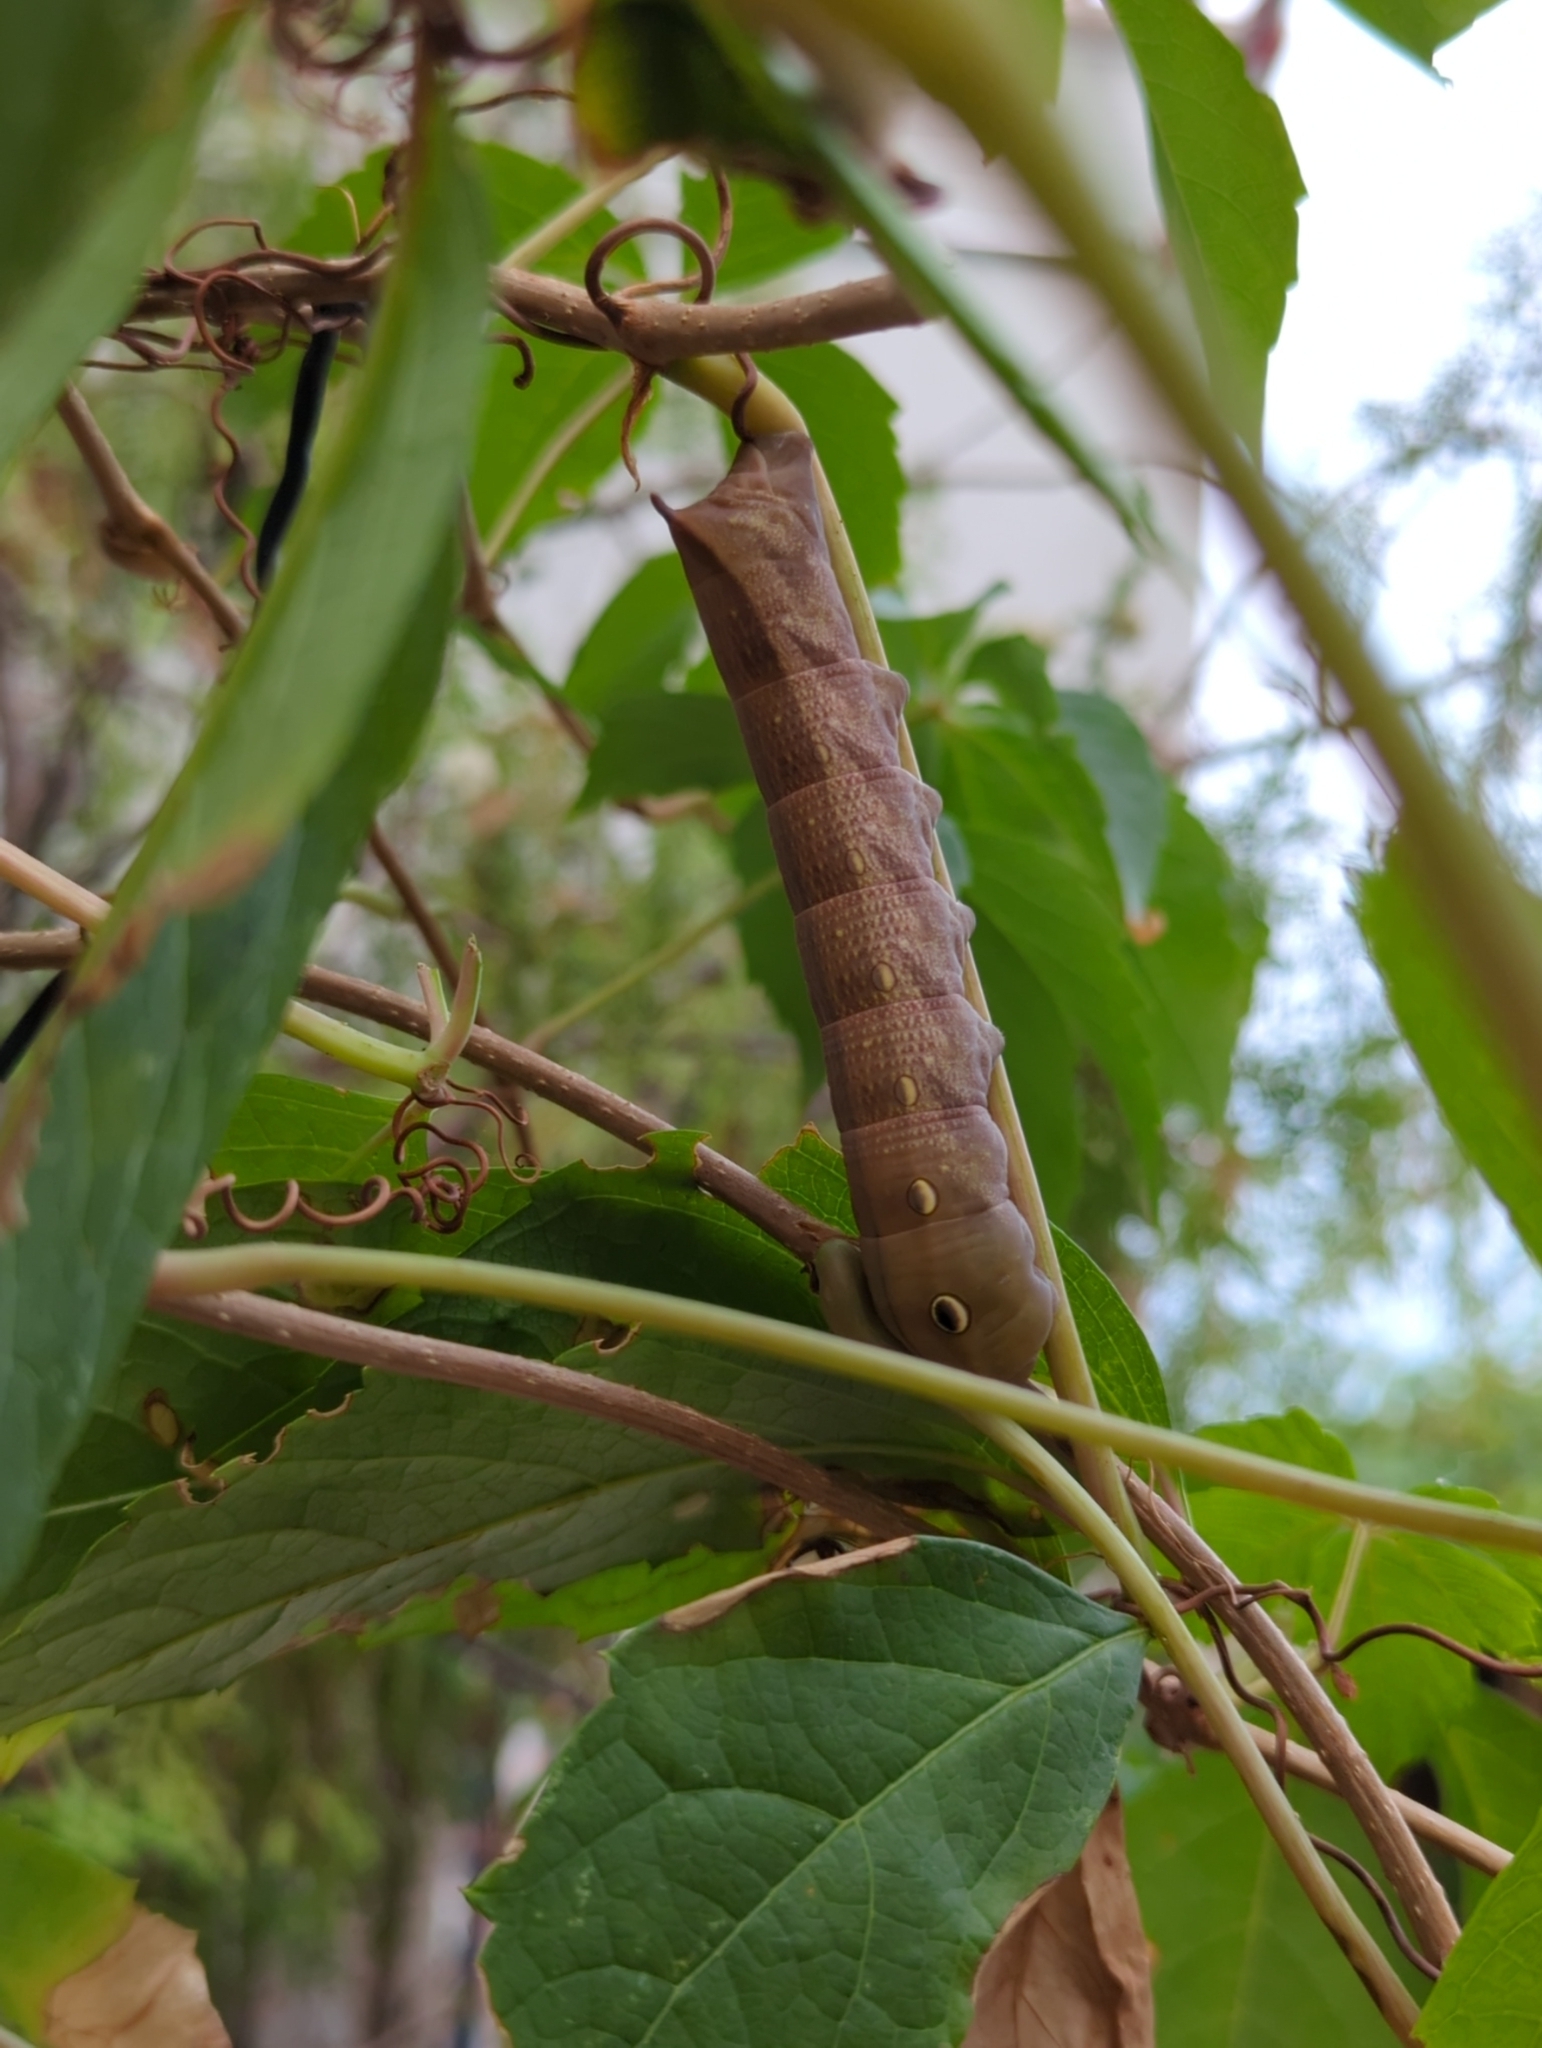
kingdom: Animalia
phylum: Arthropoda
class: Insecta
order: Lepidoptera
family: Sphingidae
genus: Theretra
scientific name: Theretra alecto
